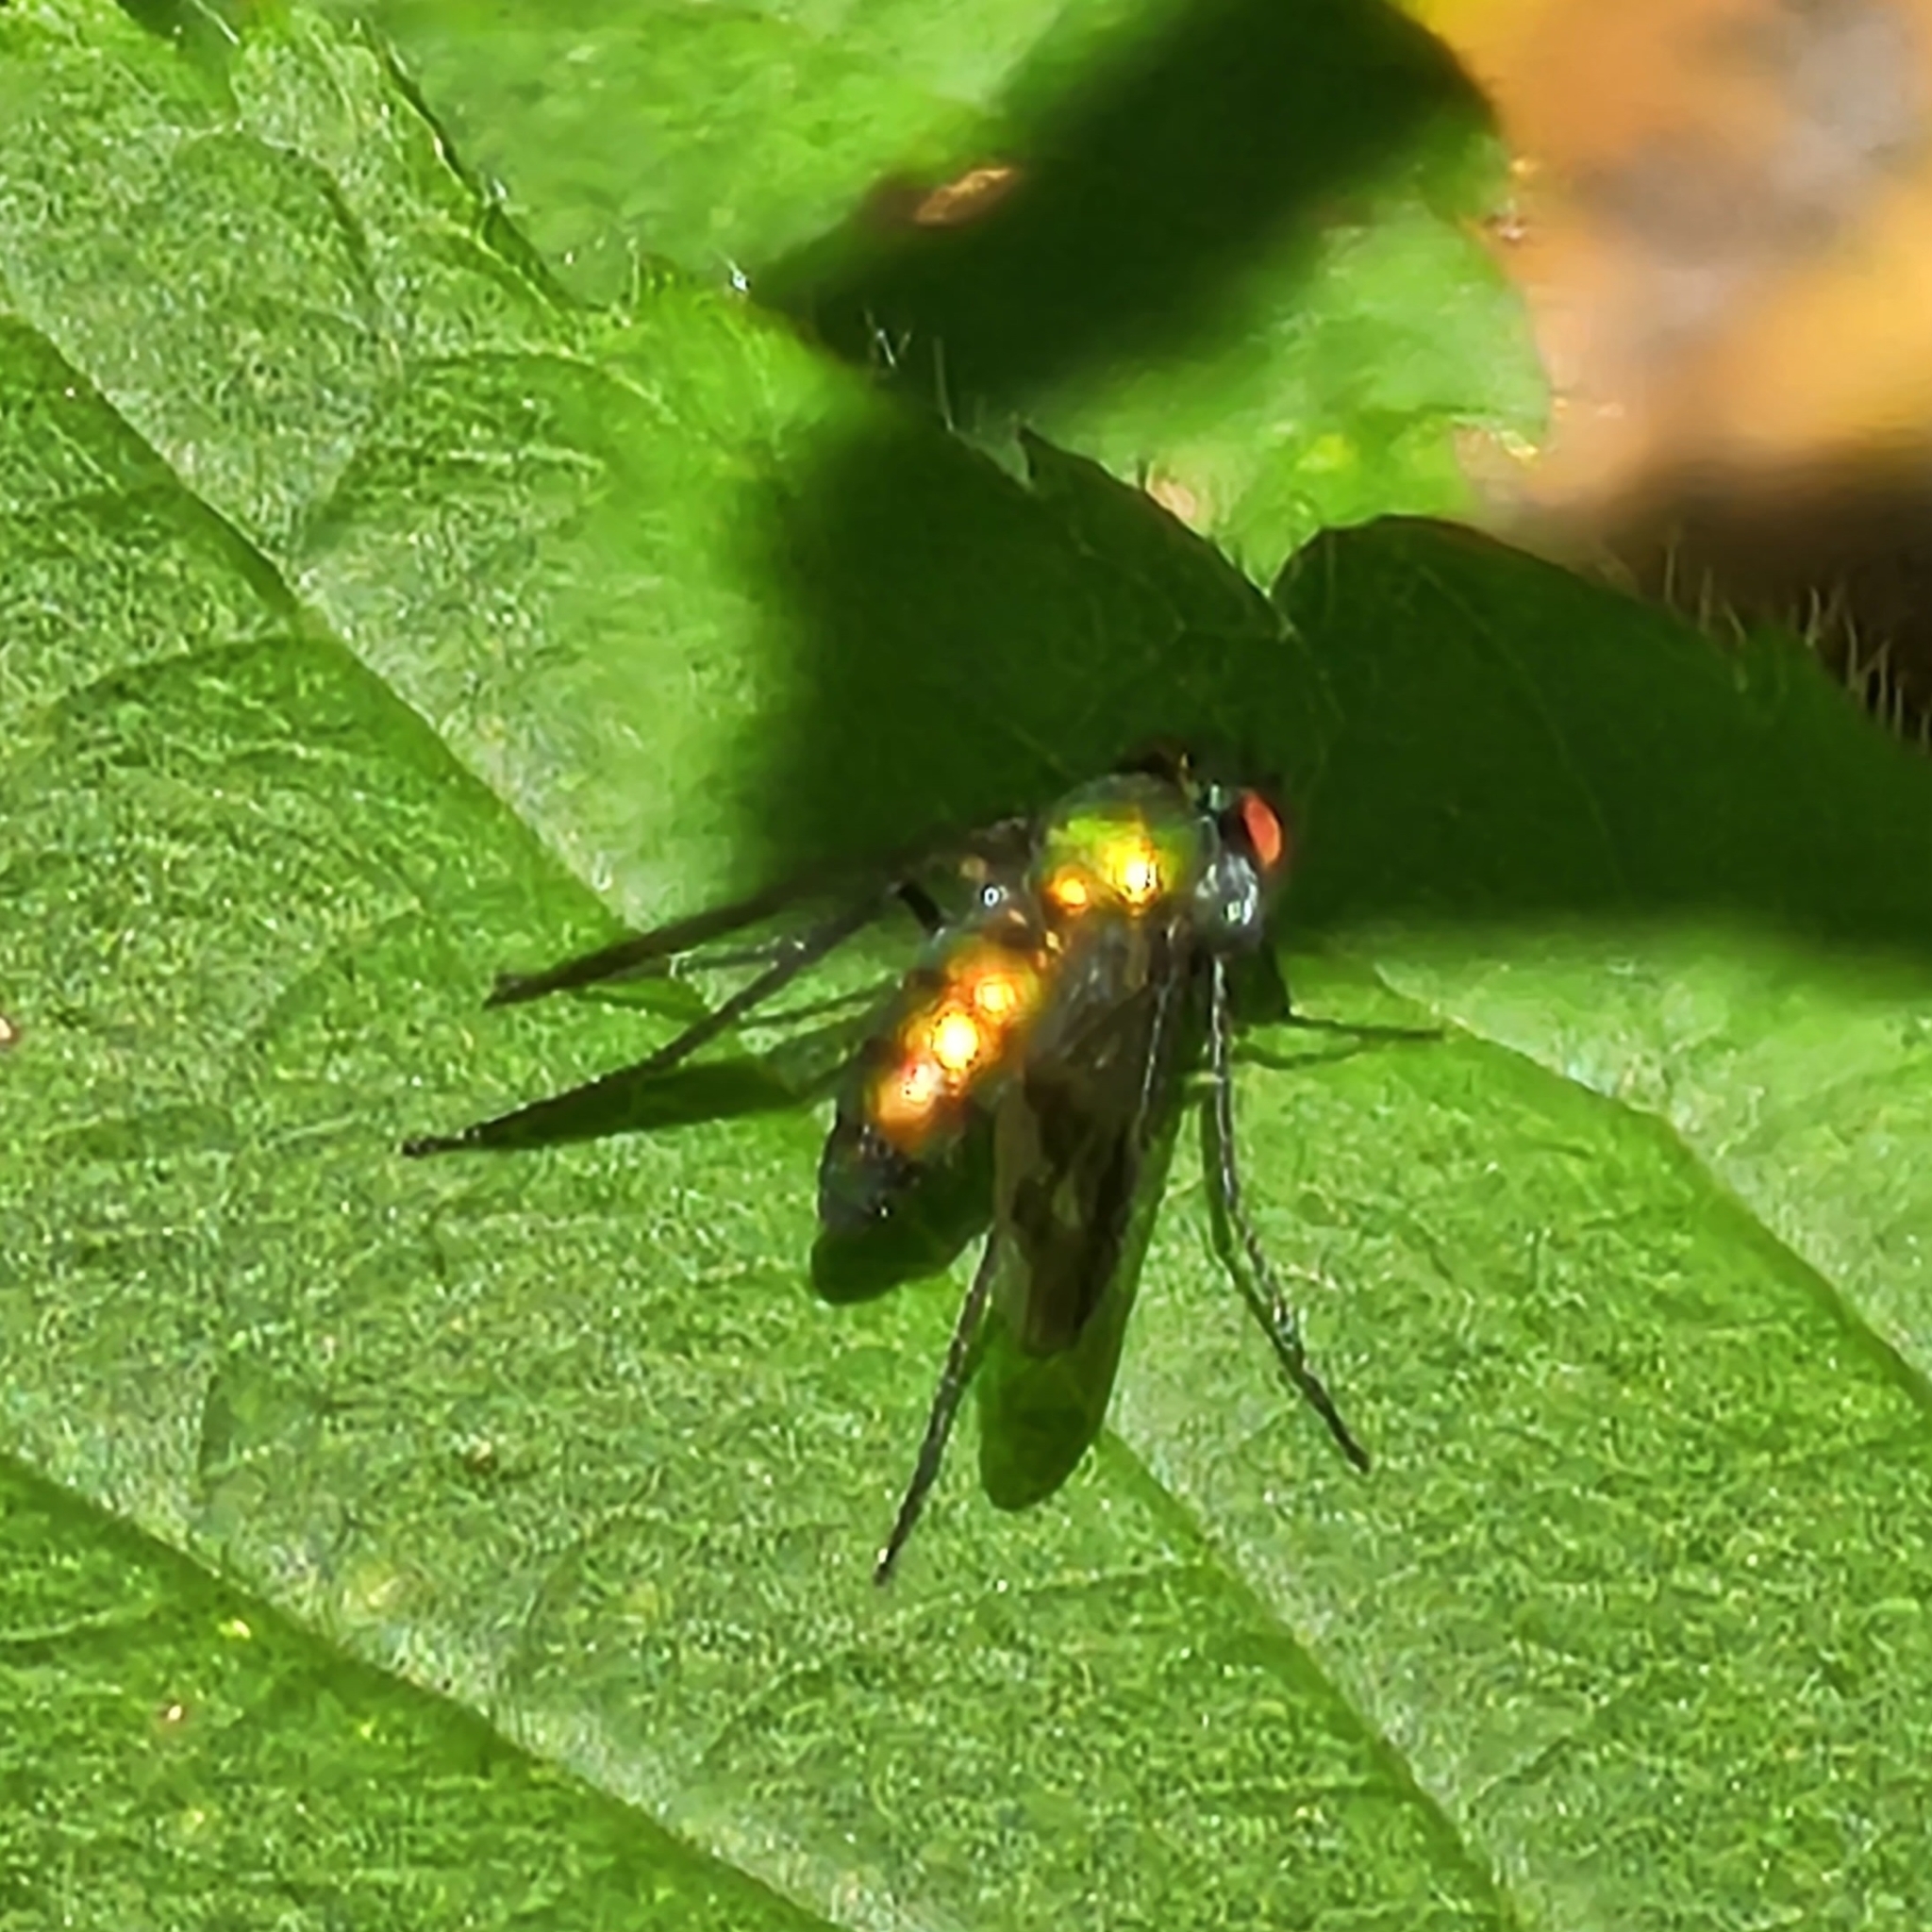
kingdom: Animalia
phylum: Arthropoda
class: Insecta
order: Diptera
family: Dolichopodidae
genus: Condylostylus
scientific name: Condylostylus patibulatus
